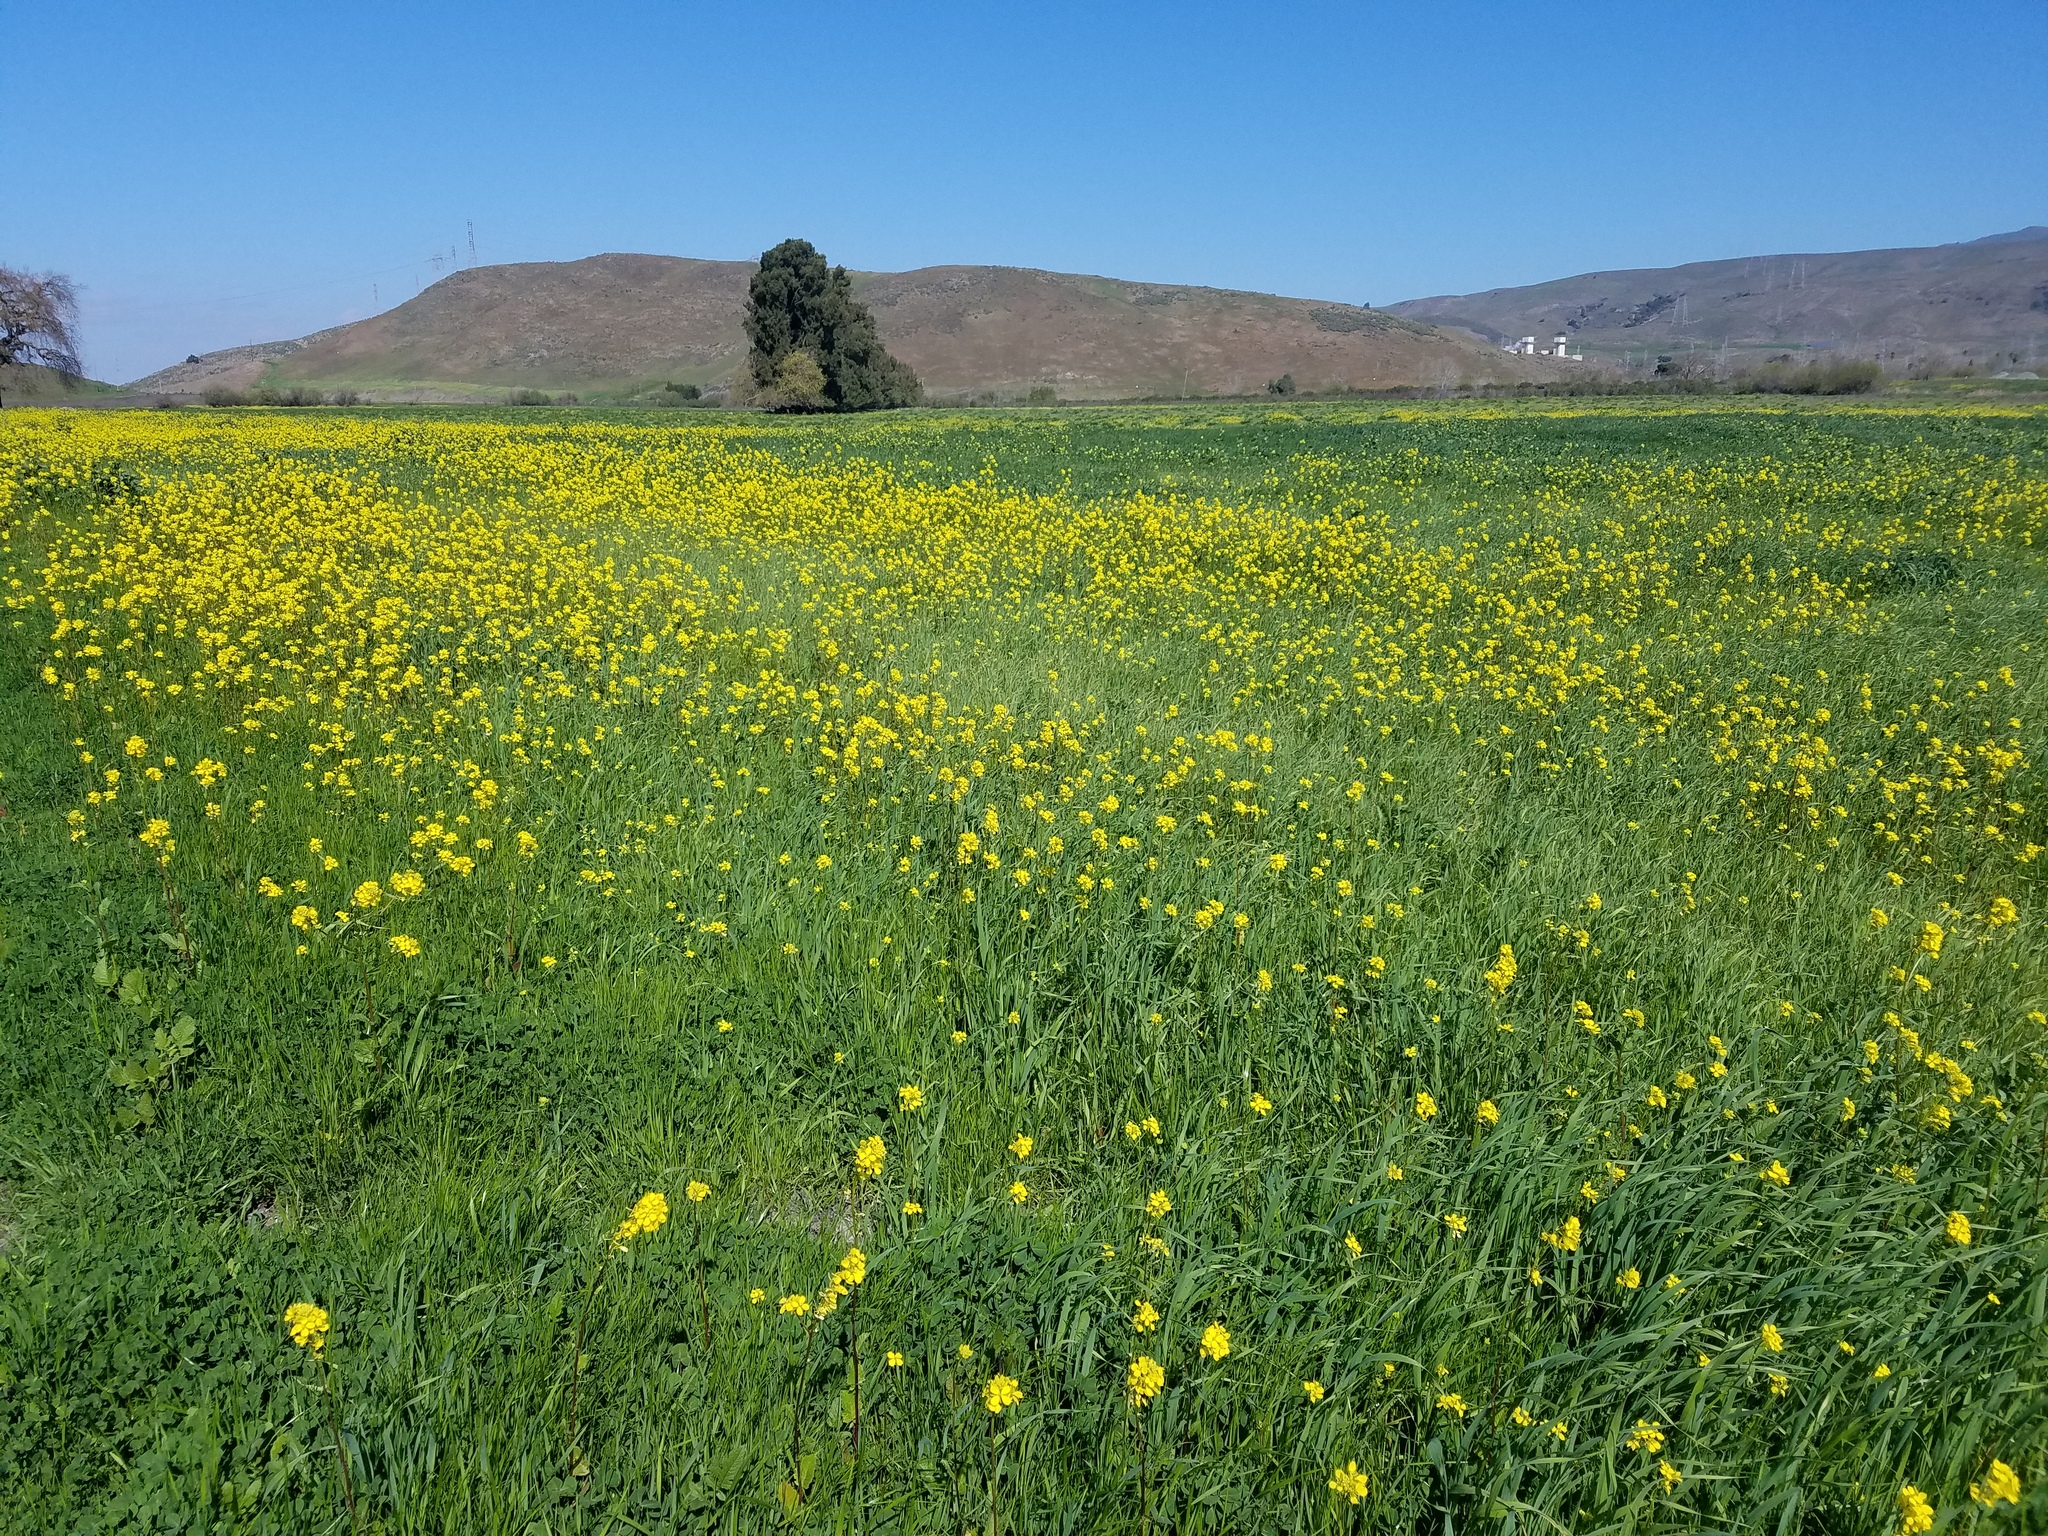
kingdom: Plantae
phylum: Tracheophyta
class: Magnoliopsida
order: Brassicales
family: Brassicaceae
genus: Brassica
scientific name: Brassica nigra
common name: Black mustard
